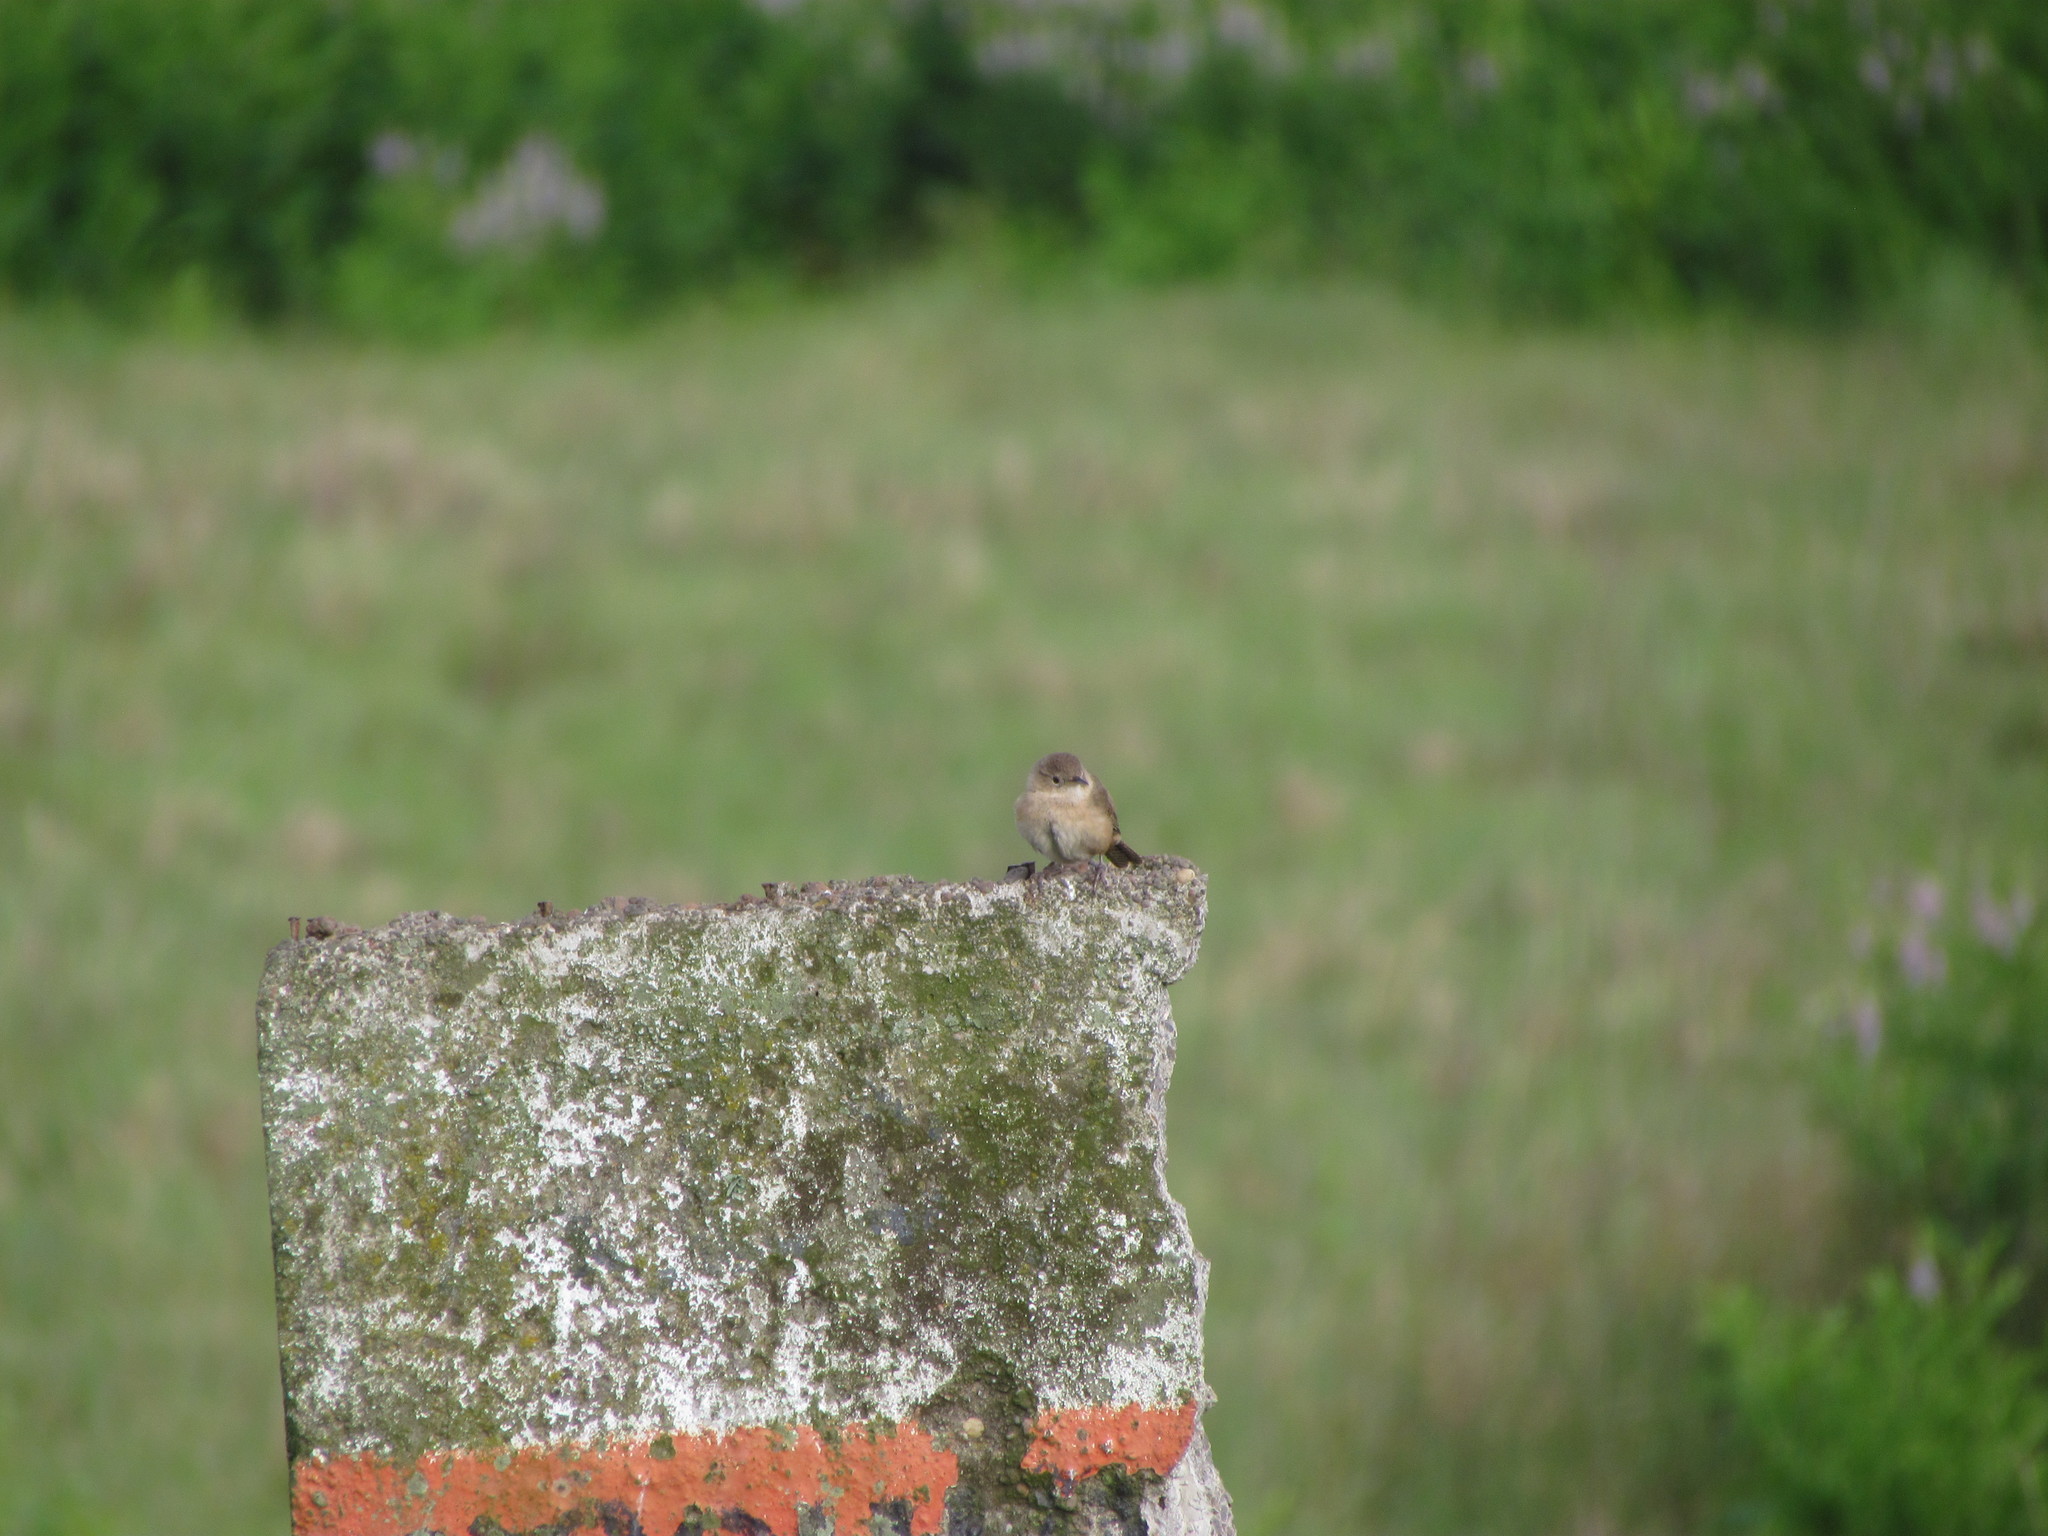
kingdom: Animalia
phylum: Chordata
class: Aves
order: Passeriformes
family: Troglodytidae
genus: Troglodytes
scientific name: Troglodytes aedon
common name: House wren
